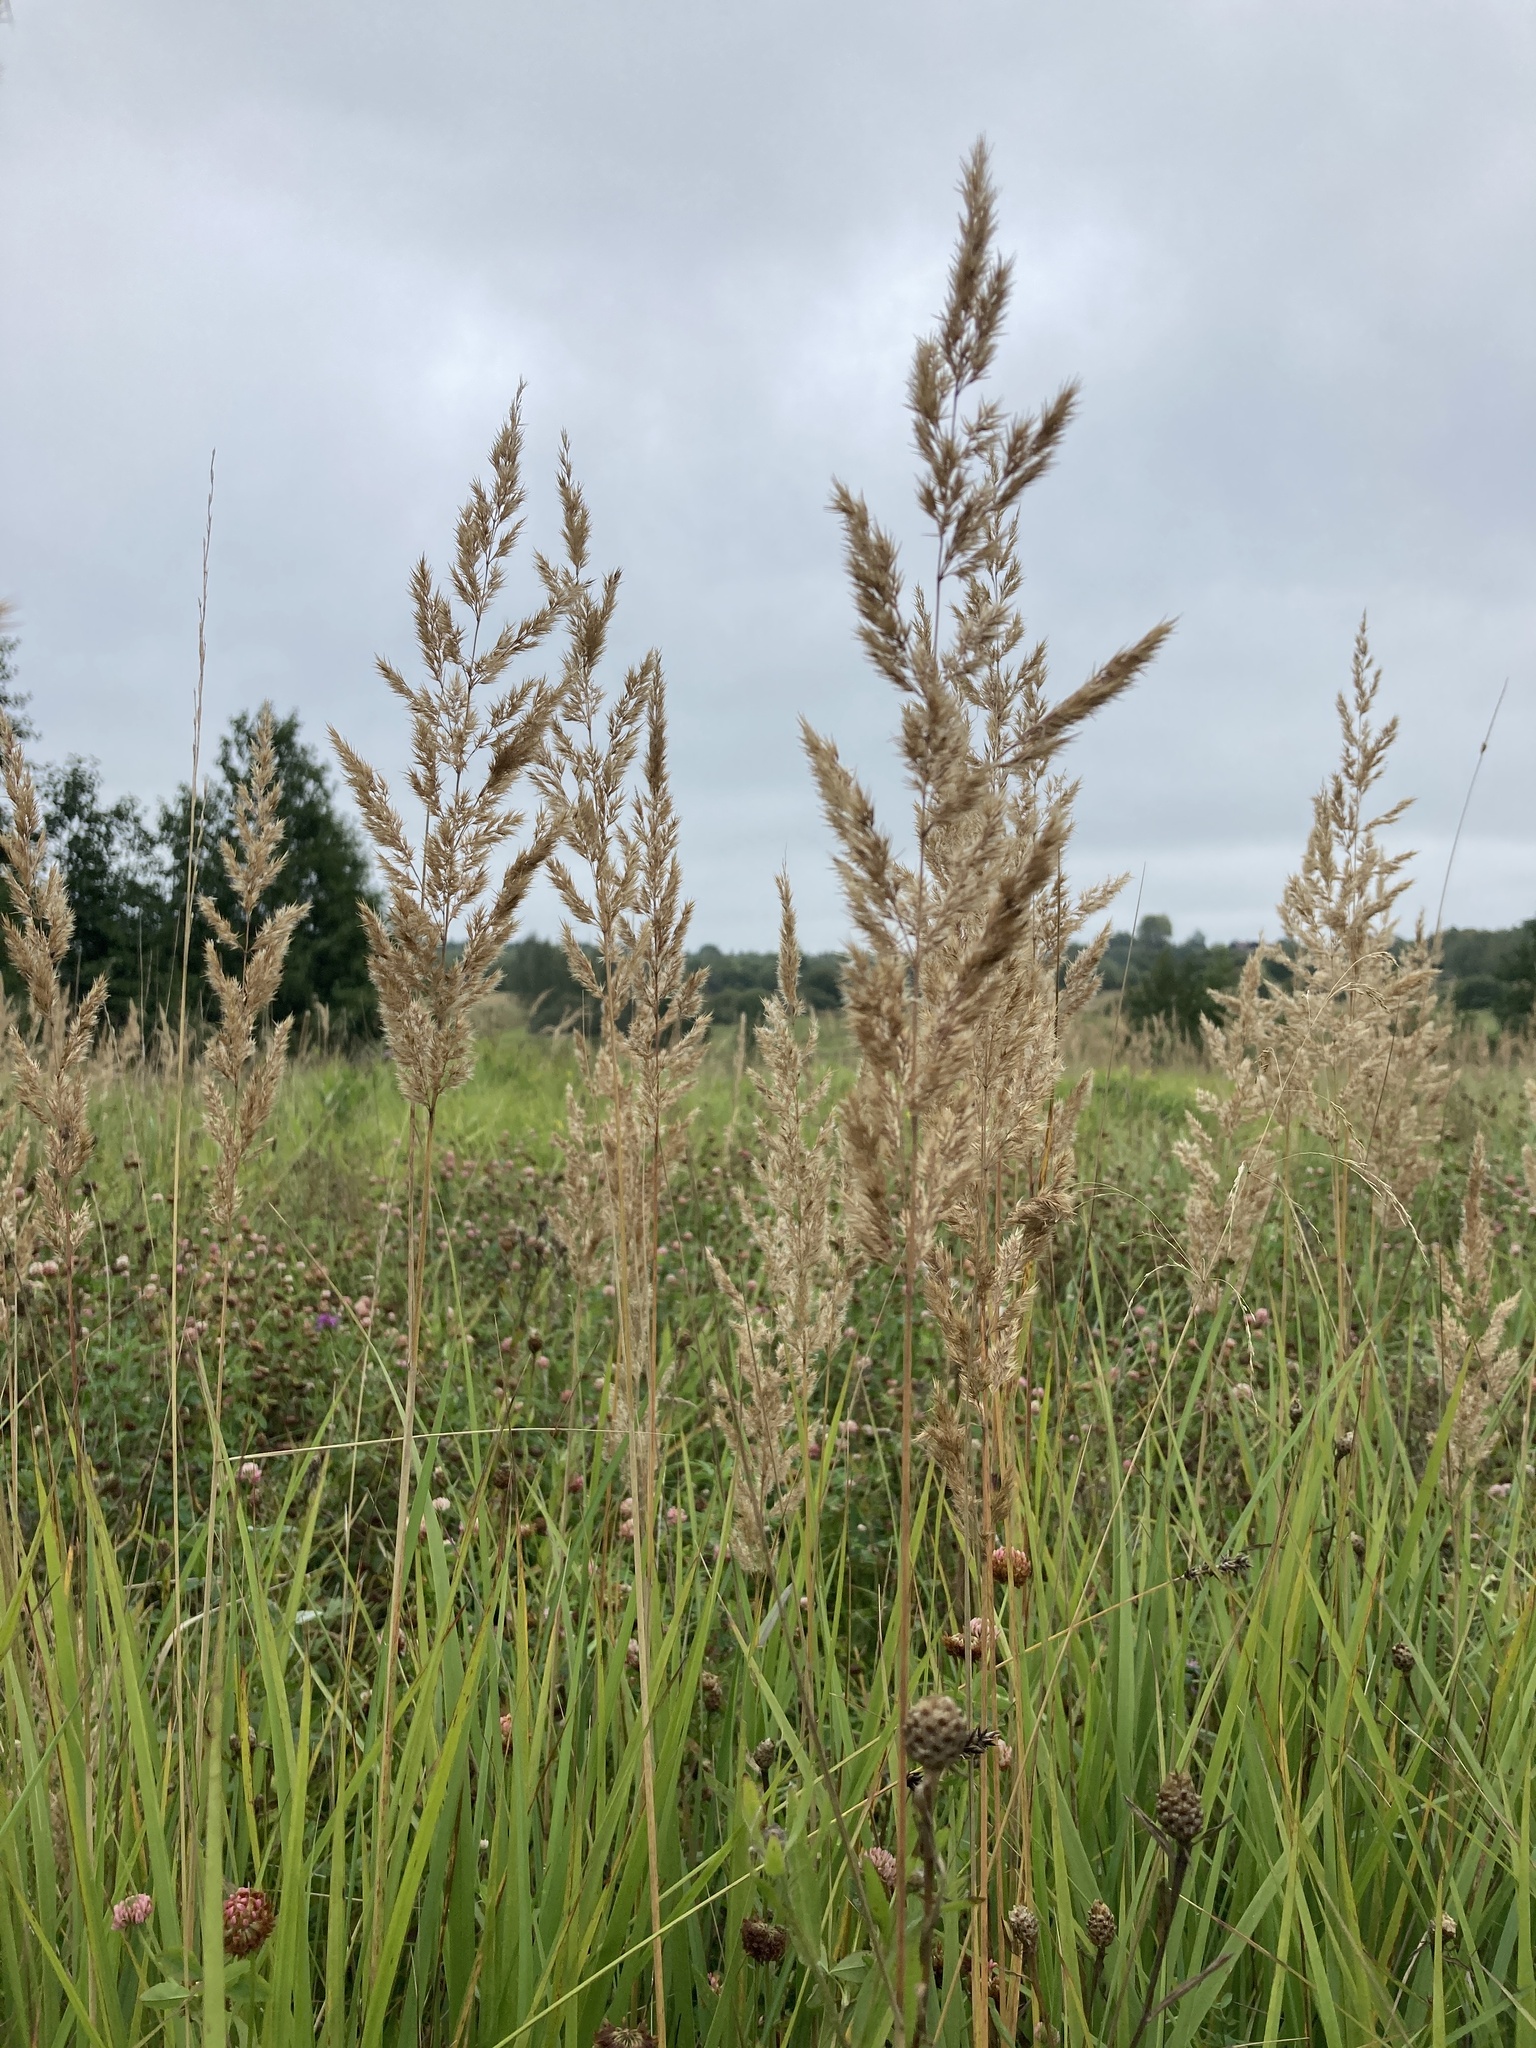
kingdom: Plantae
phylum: Tracheophyta
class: Liliopsida
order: Poales
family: Poaceae
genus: Calamagrostis
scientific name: Calamagrostis epigejos
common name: Wood small-reed
